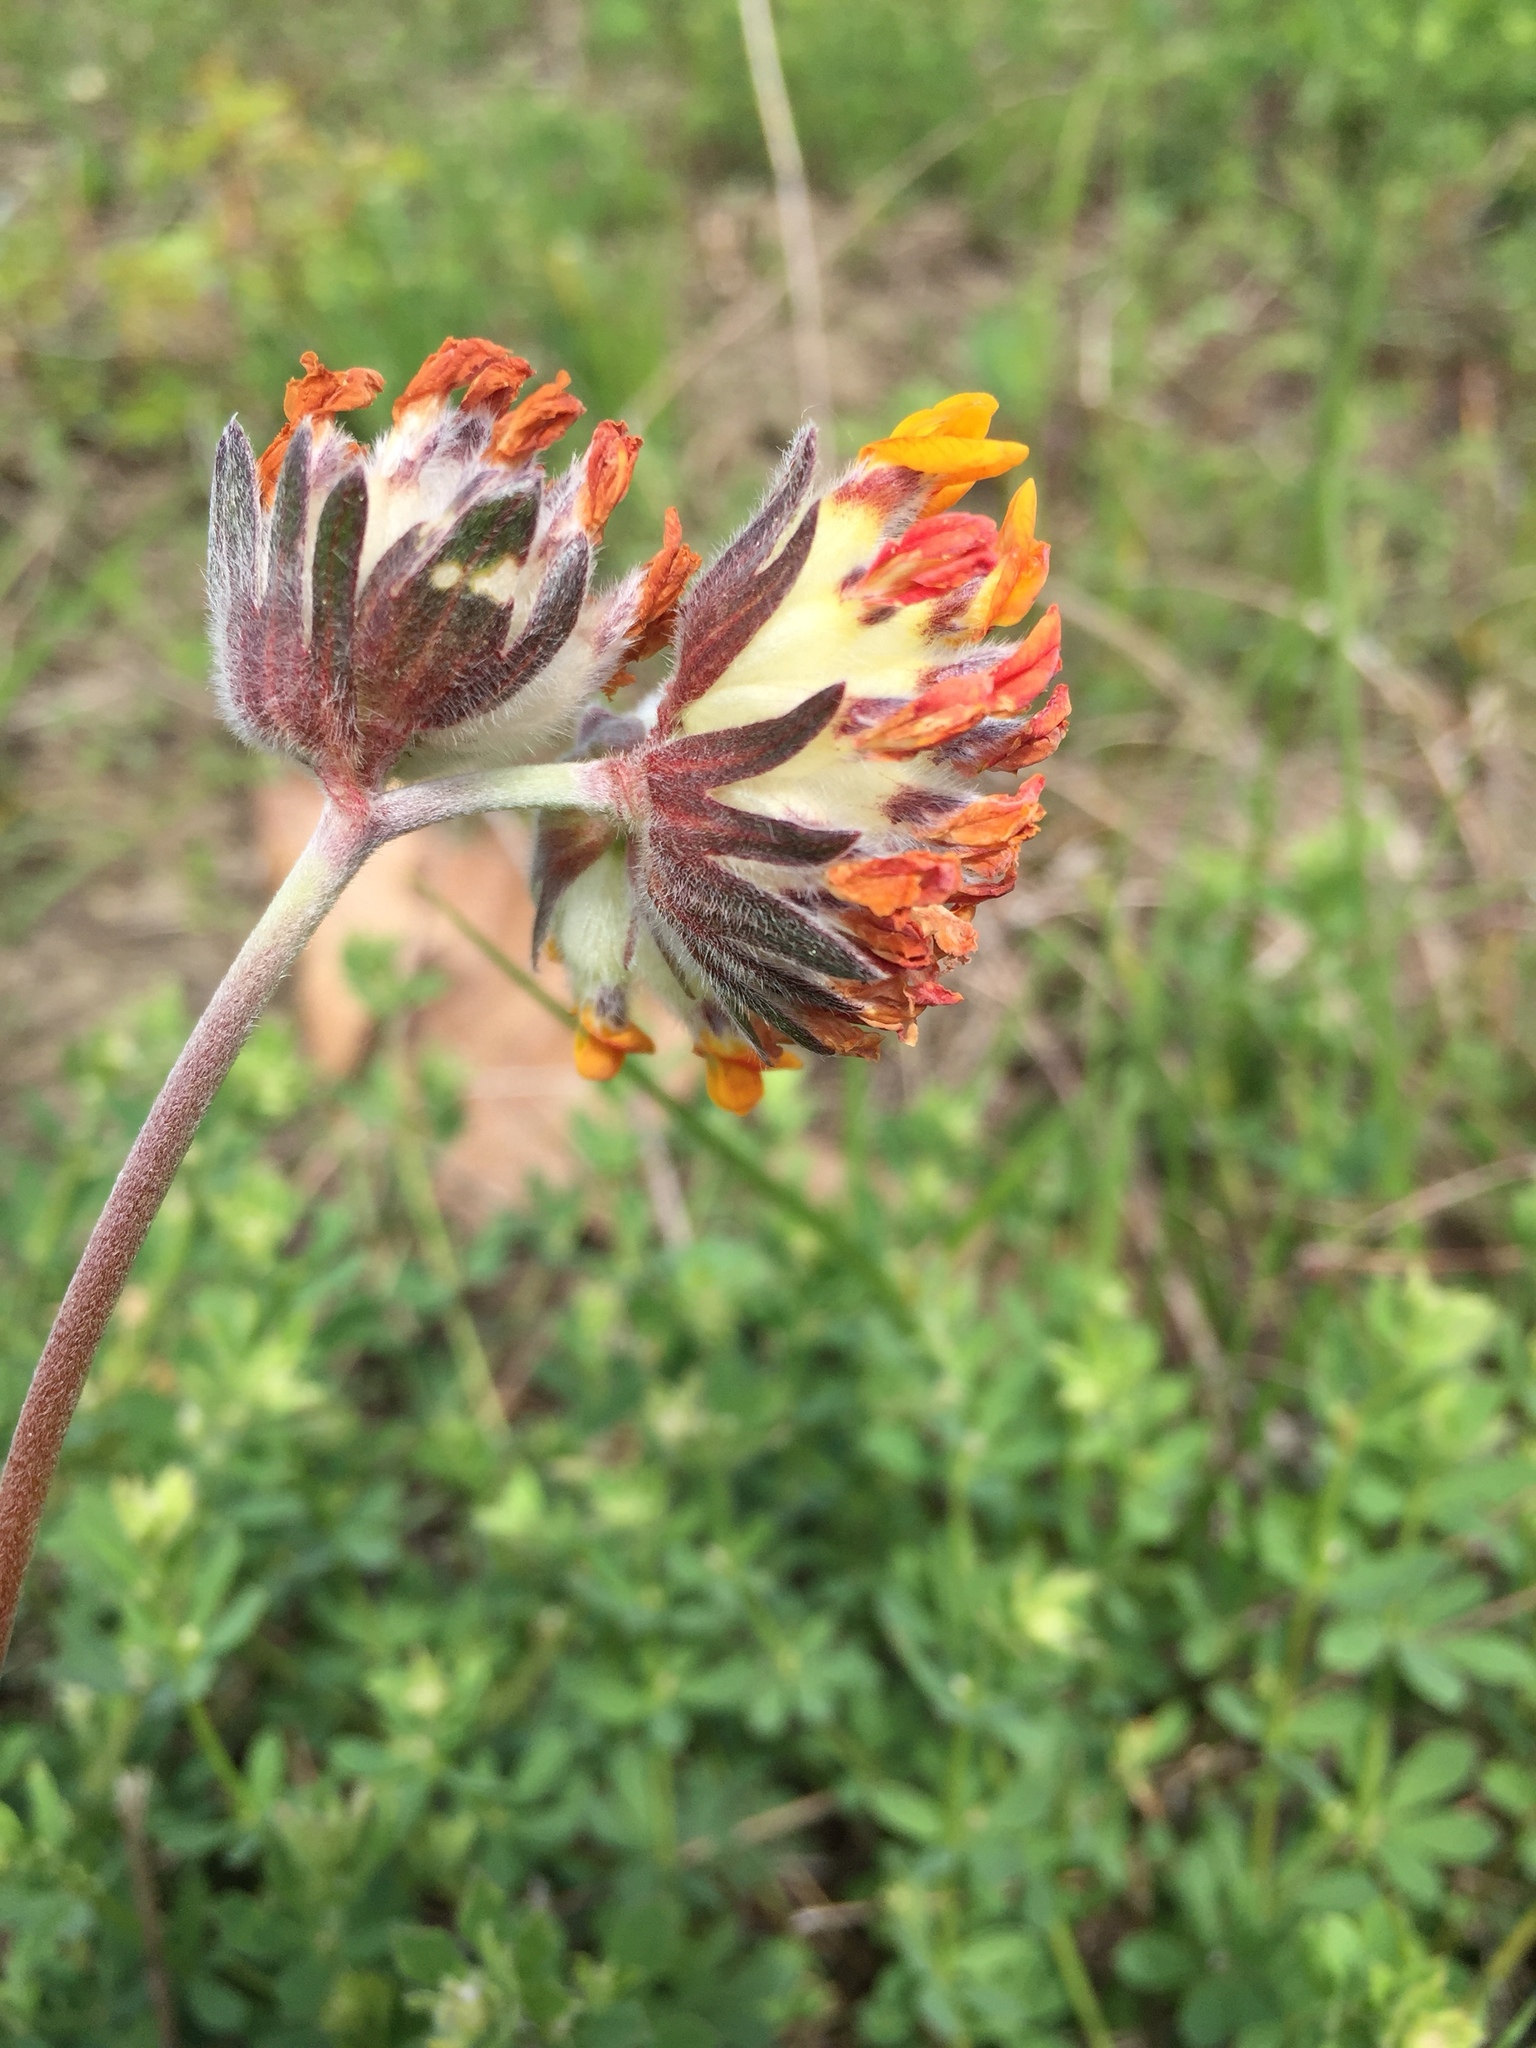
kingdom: Plantae
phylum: Tracheophyta
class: Magnoliopsida
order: Fabales
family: Fabaceae
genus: Anthyllis
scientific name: Anthyllis vulneraria
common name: Kidney vetch
